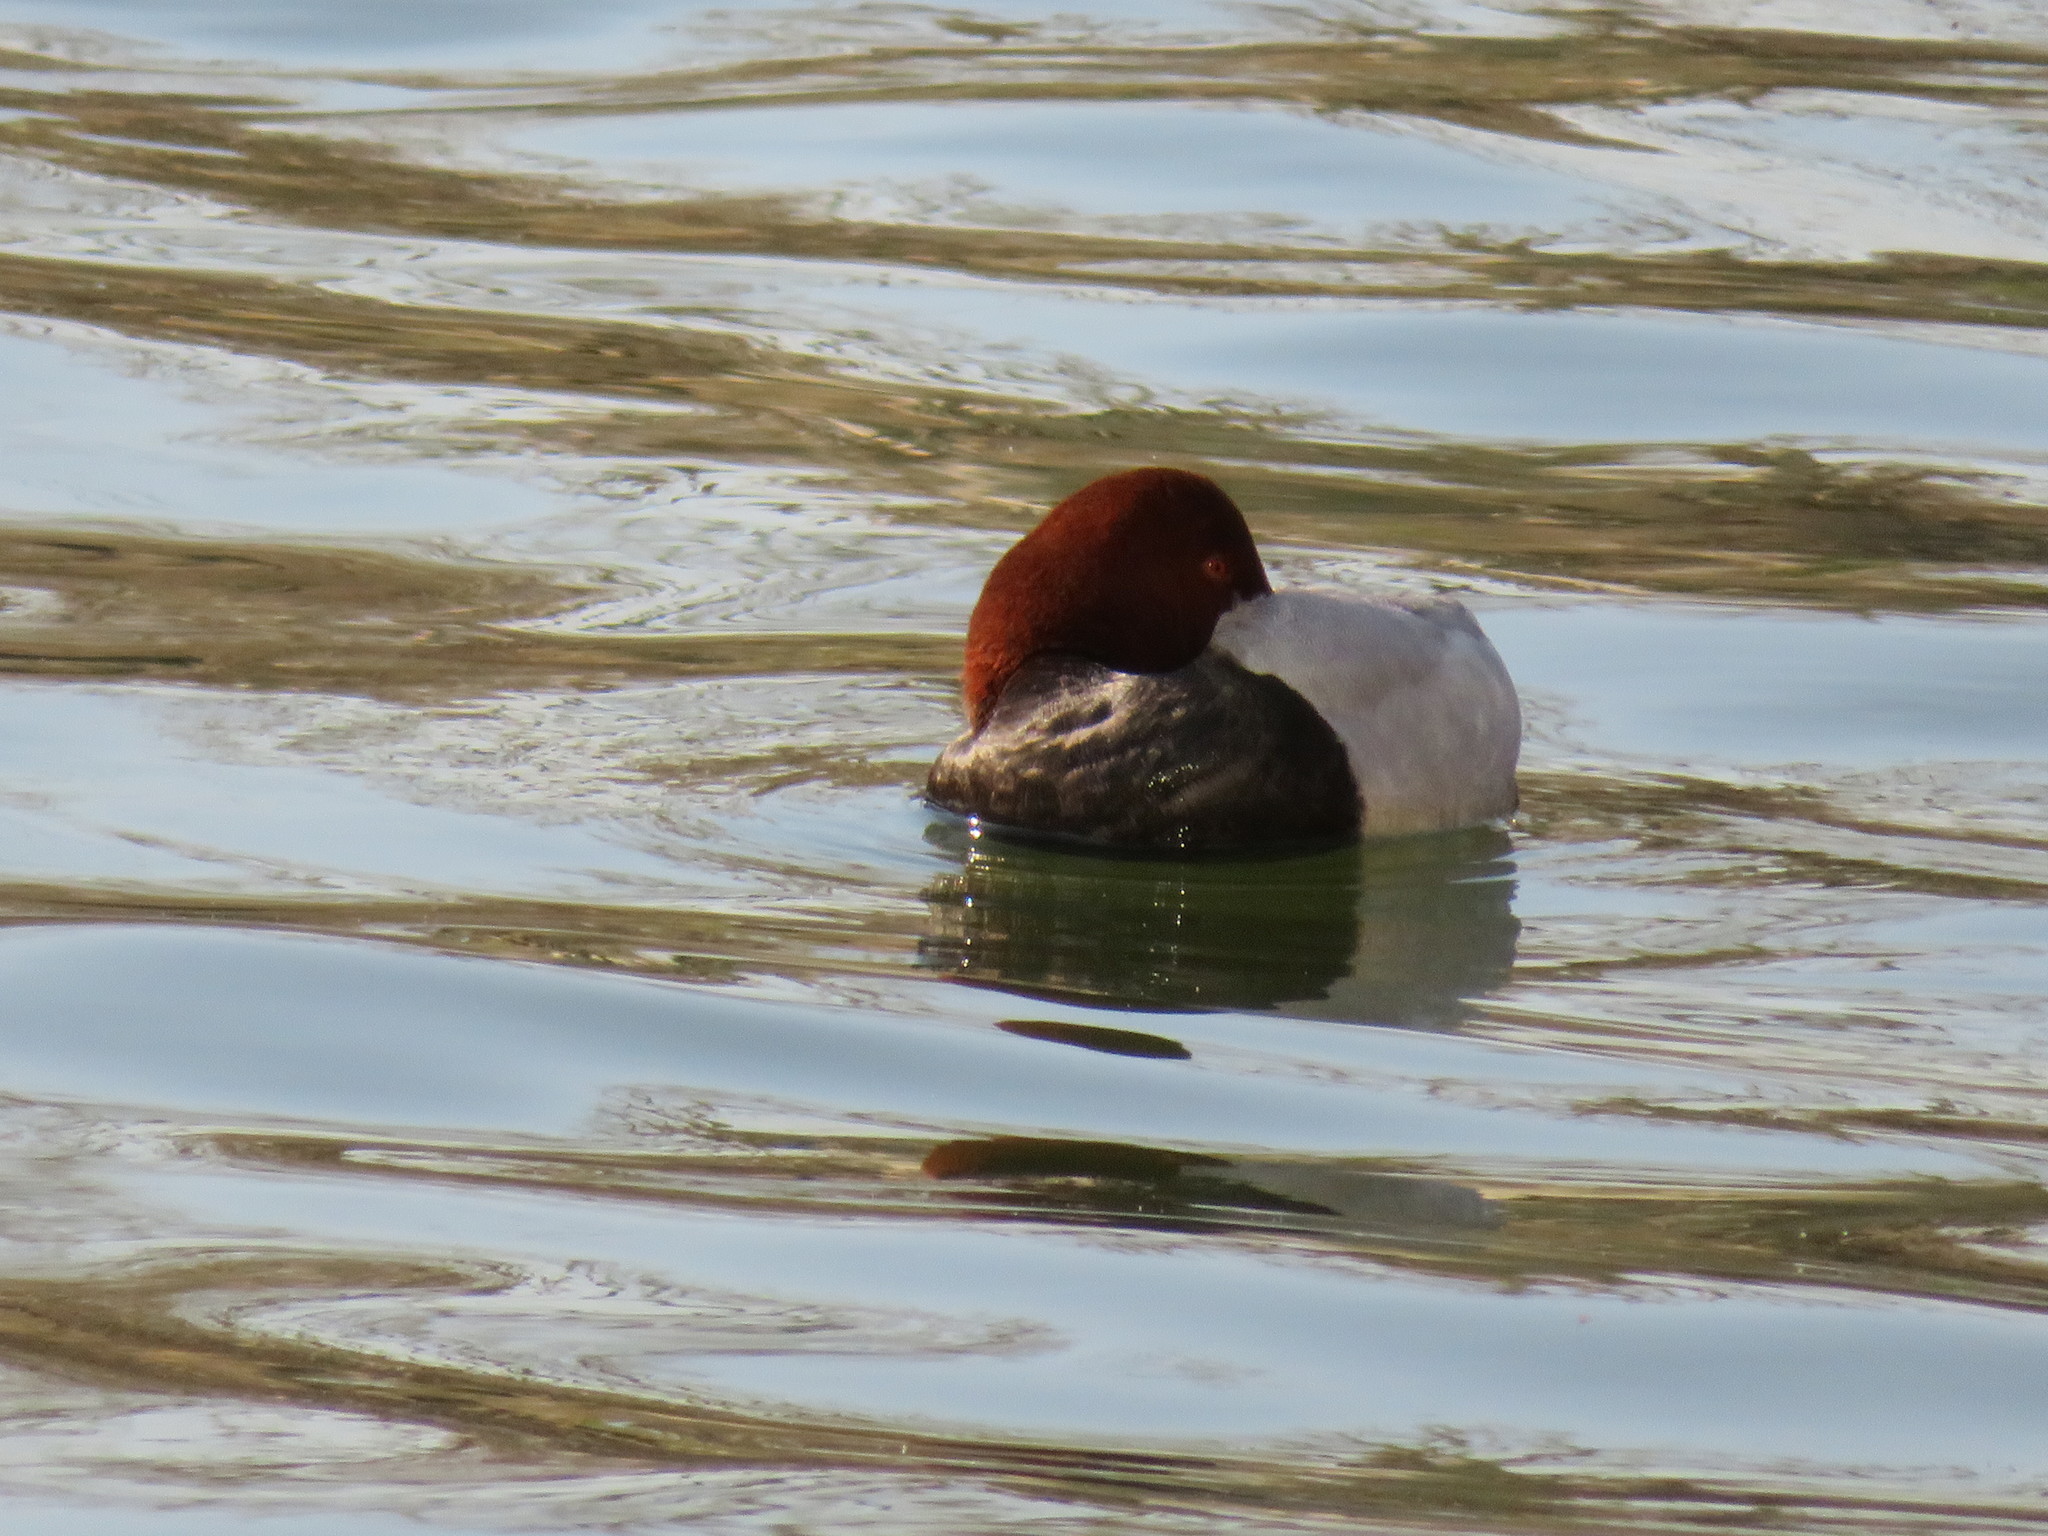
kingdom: Animalia
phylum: Chordata
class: Aves
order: Anseriformes
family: Anatidae
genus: Aythya
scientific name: Aythya ferina
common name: Common pochard
